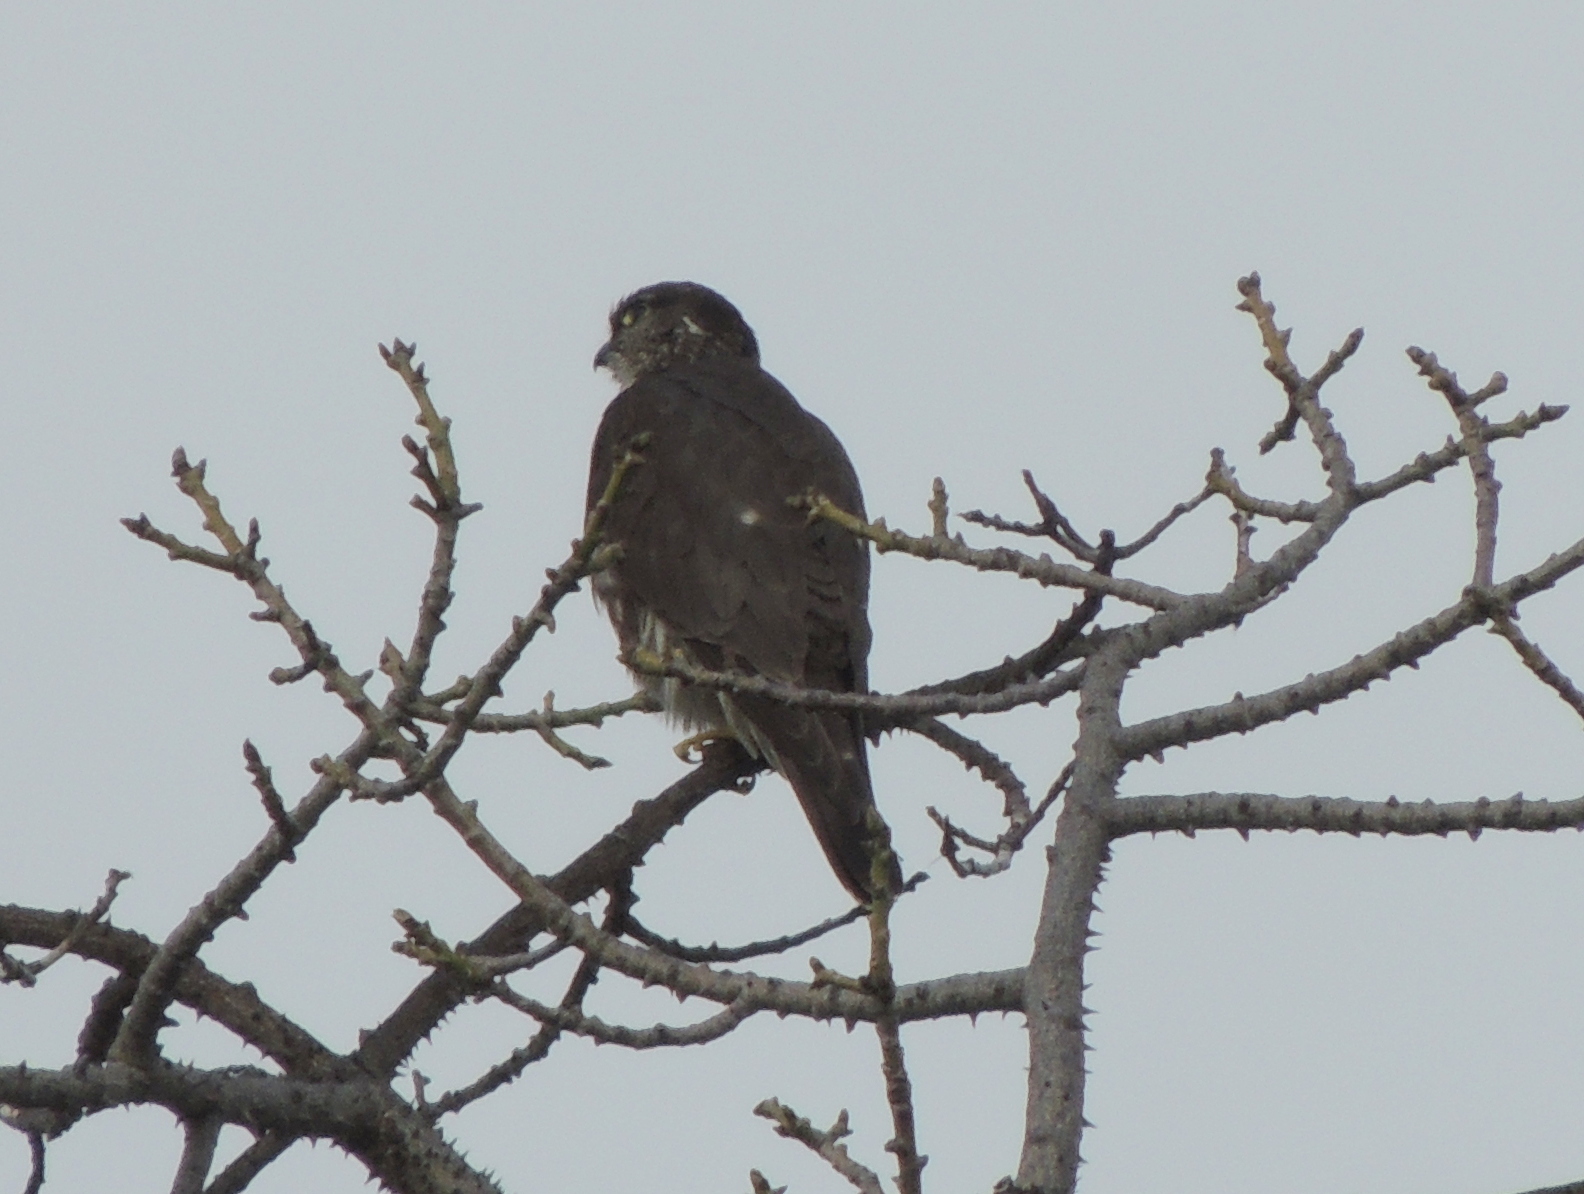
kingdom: Animalia
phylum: Chordata
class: Aves
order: Falconiformes
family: Falconidae
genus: Falco
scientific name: Falco columbarius
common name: Merlin
